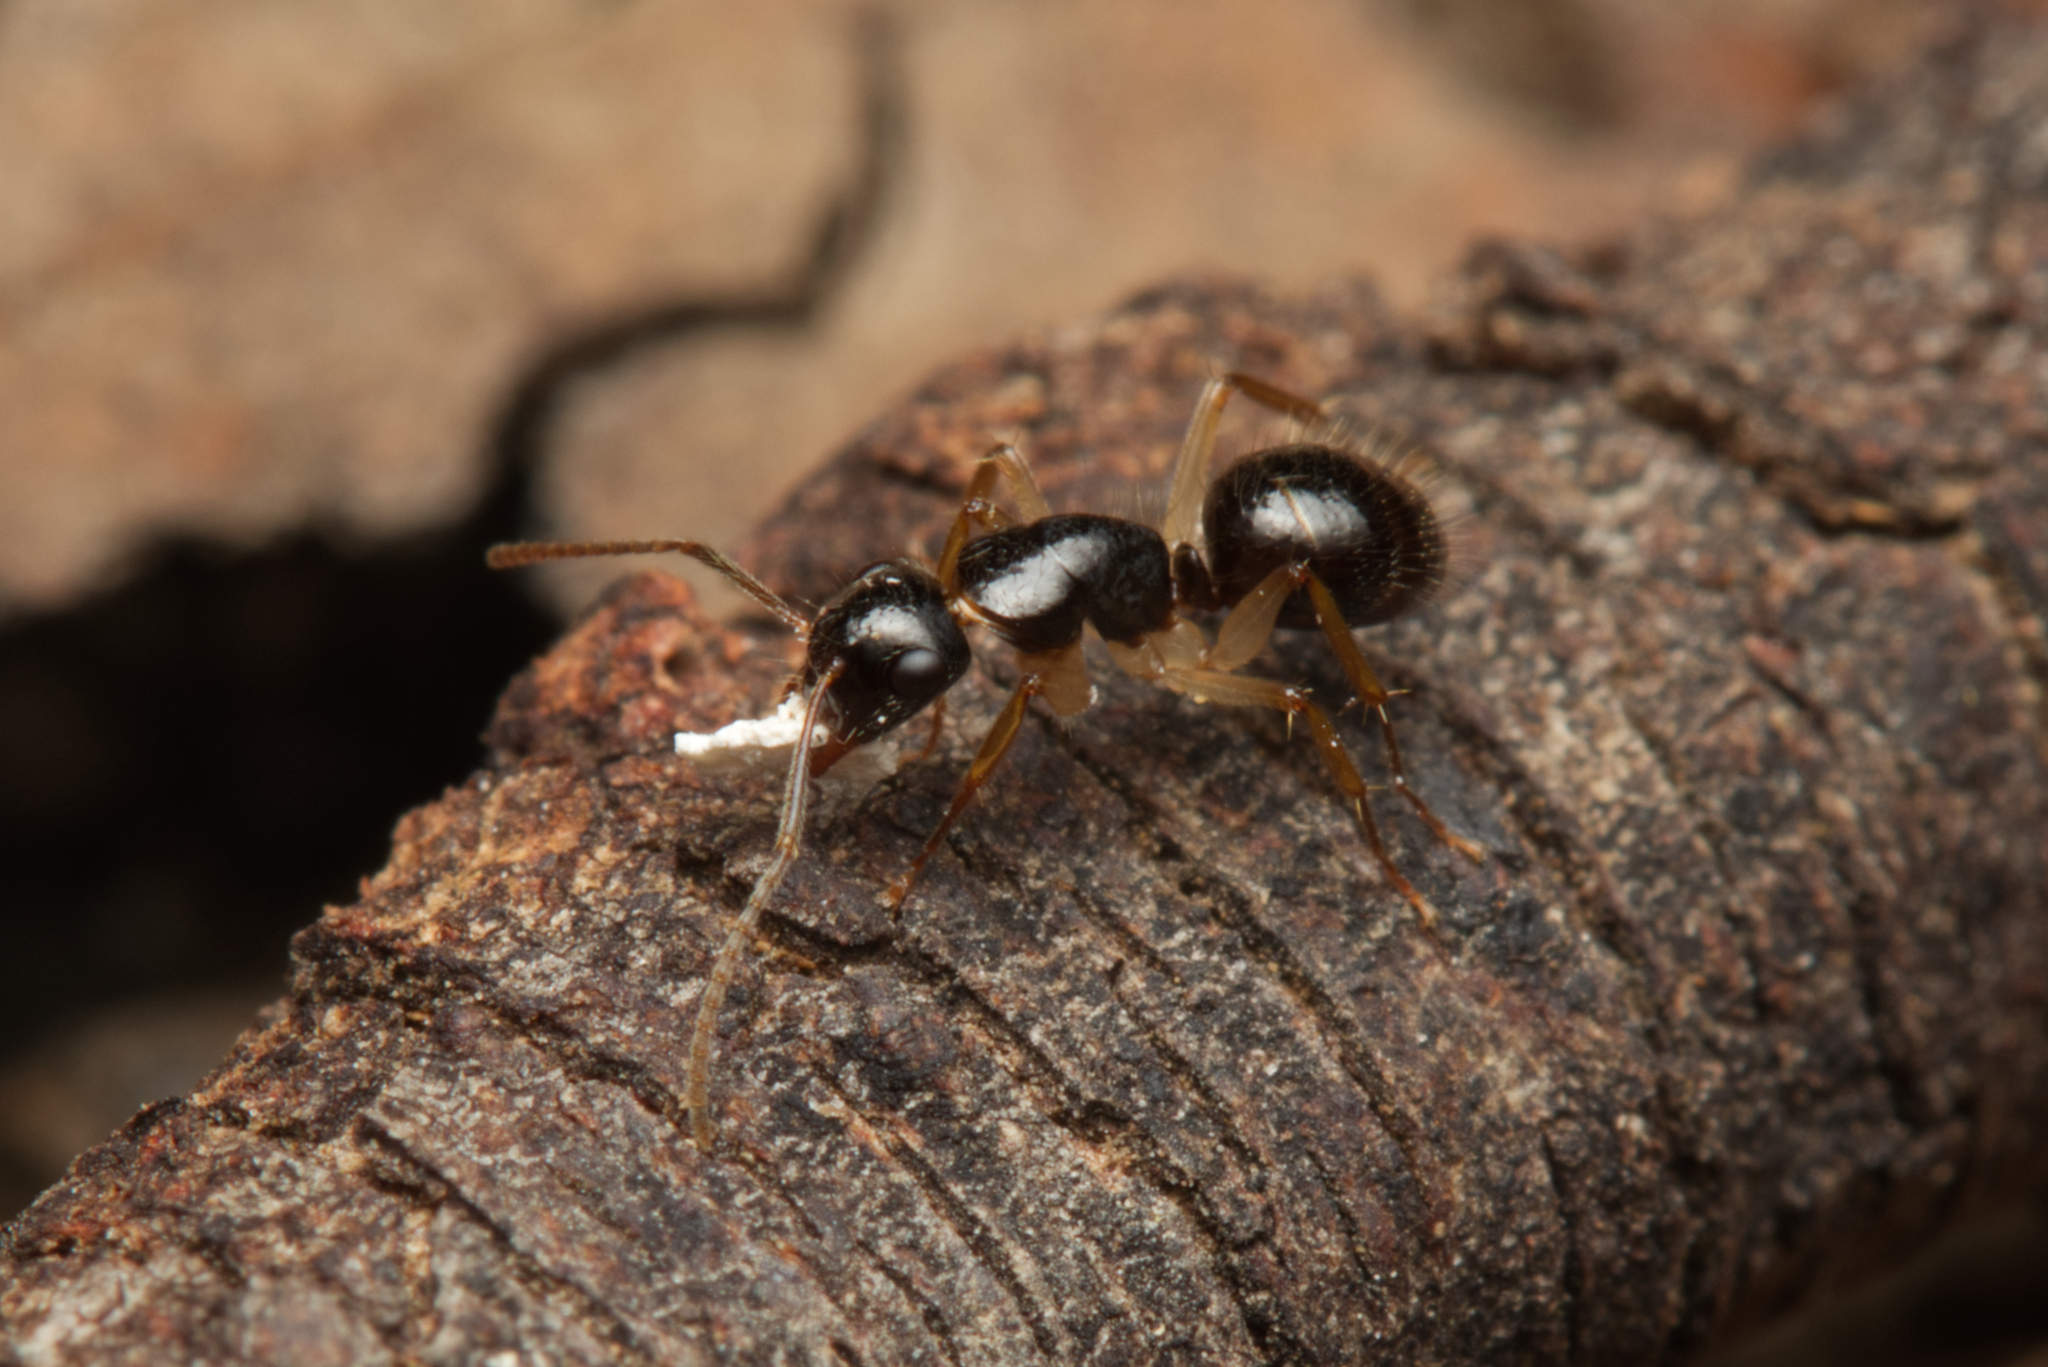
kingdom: Animalia
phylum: Arthropoda
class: Insecta
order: Hymenoptera
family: Formicidae
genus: Camponotus
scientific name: Camponotus lownei
